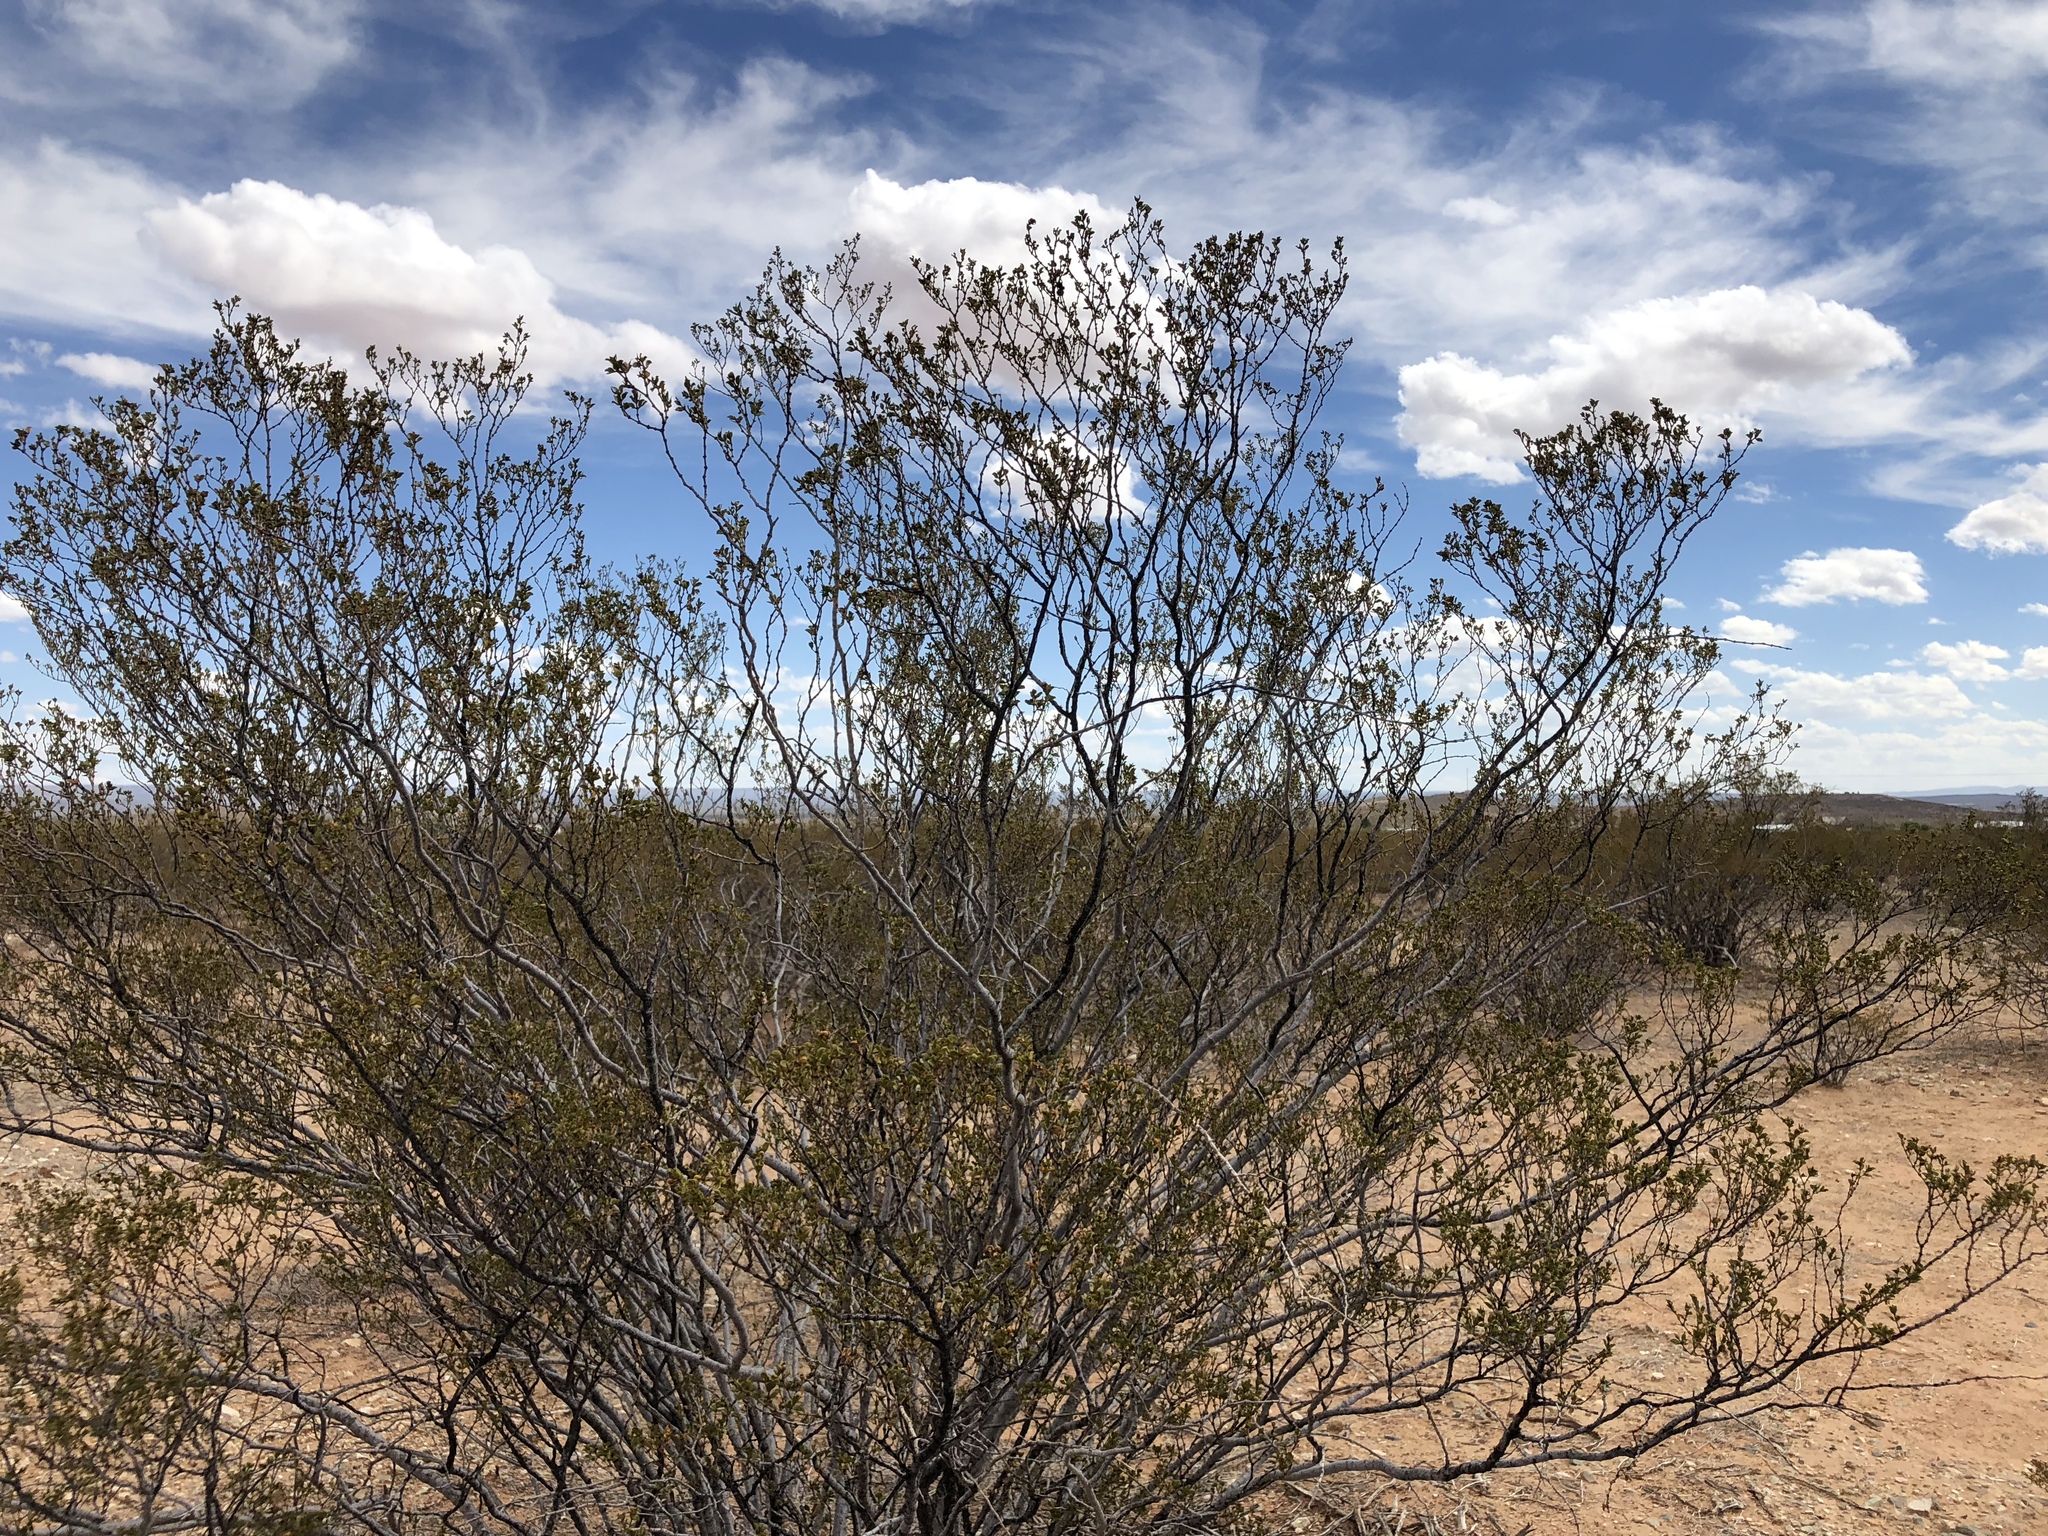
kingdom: Plantae
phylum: Tracheophyta
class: Magnoliopsida
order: Zygophyllales
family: Zygophyllaceae
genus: Larrea
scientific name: Larrea tridentata
